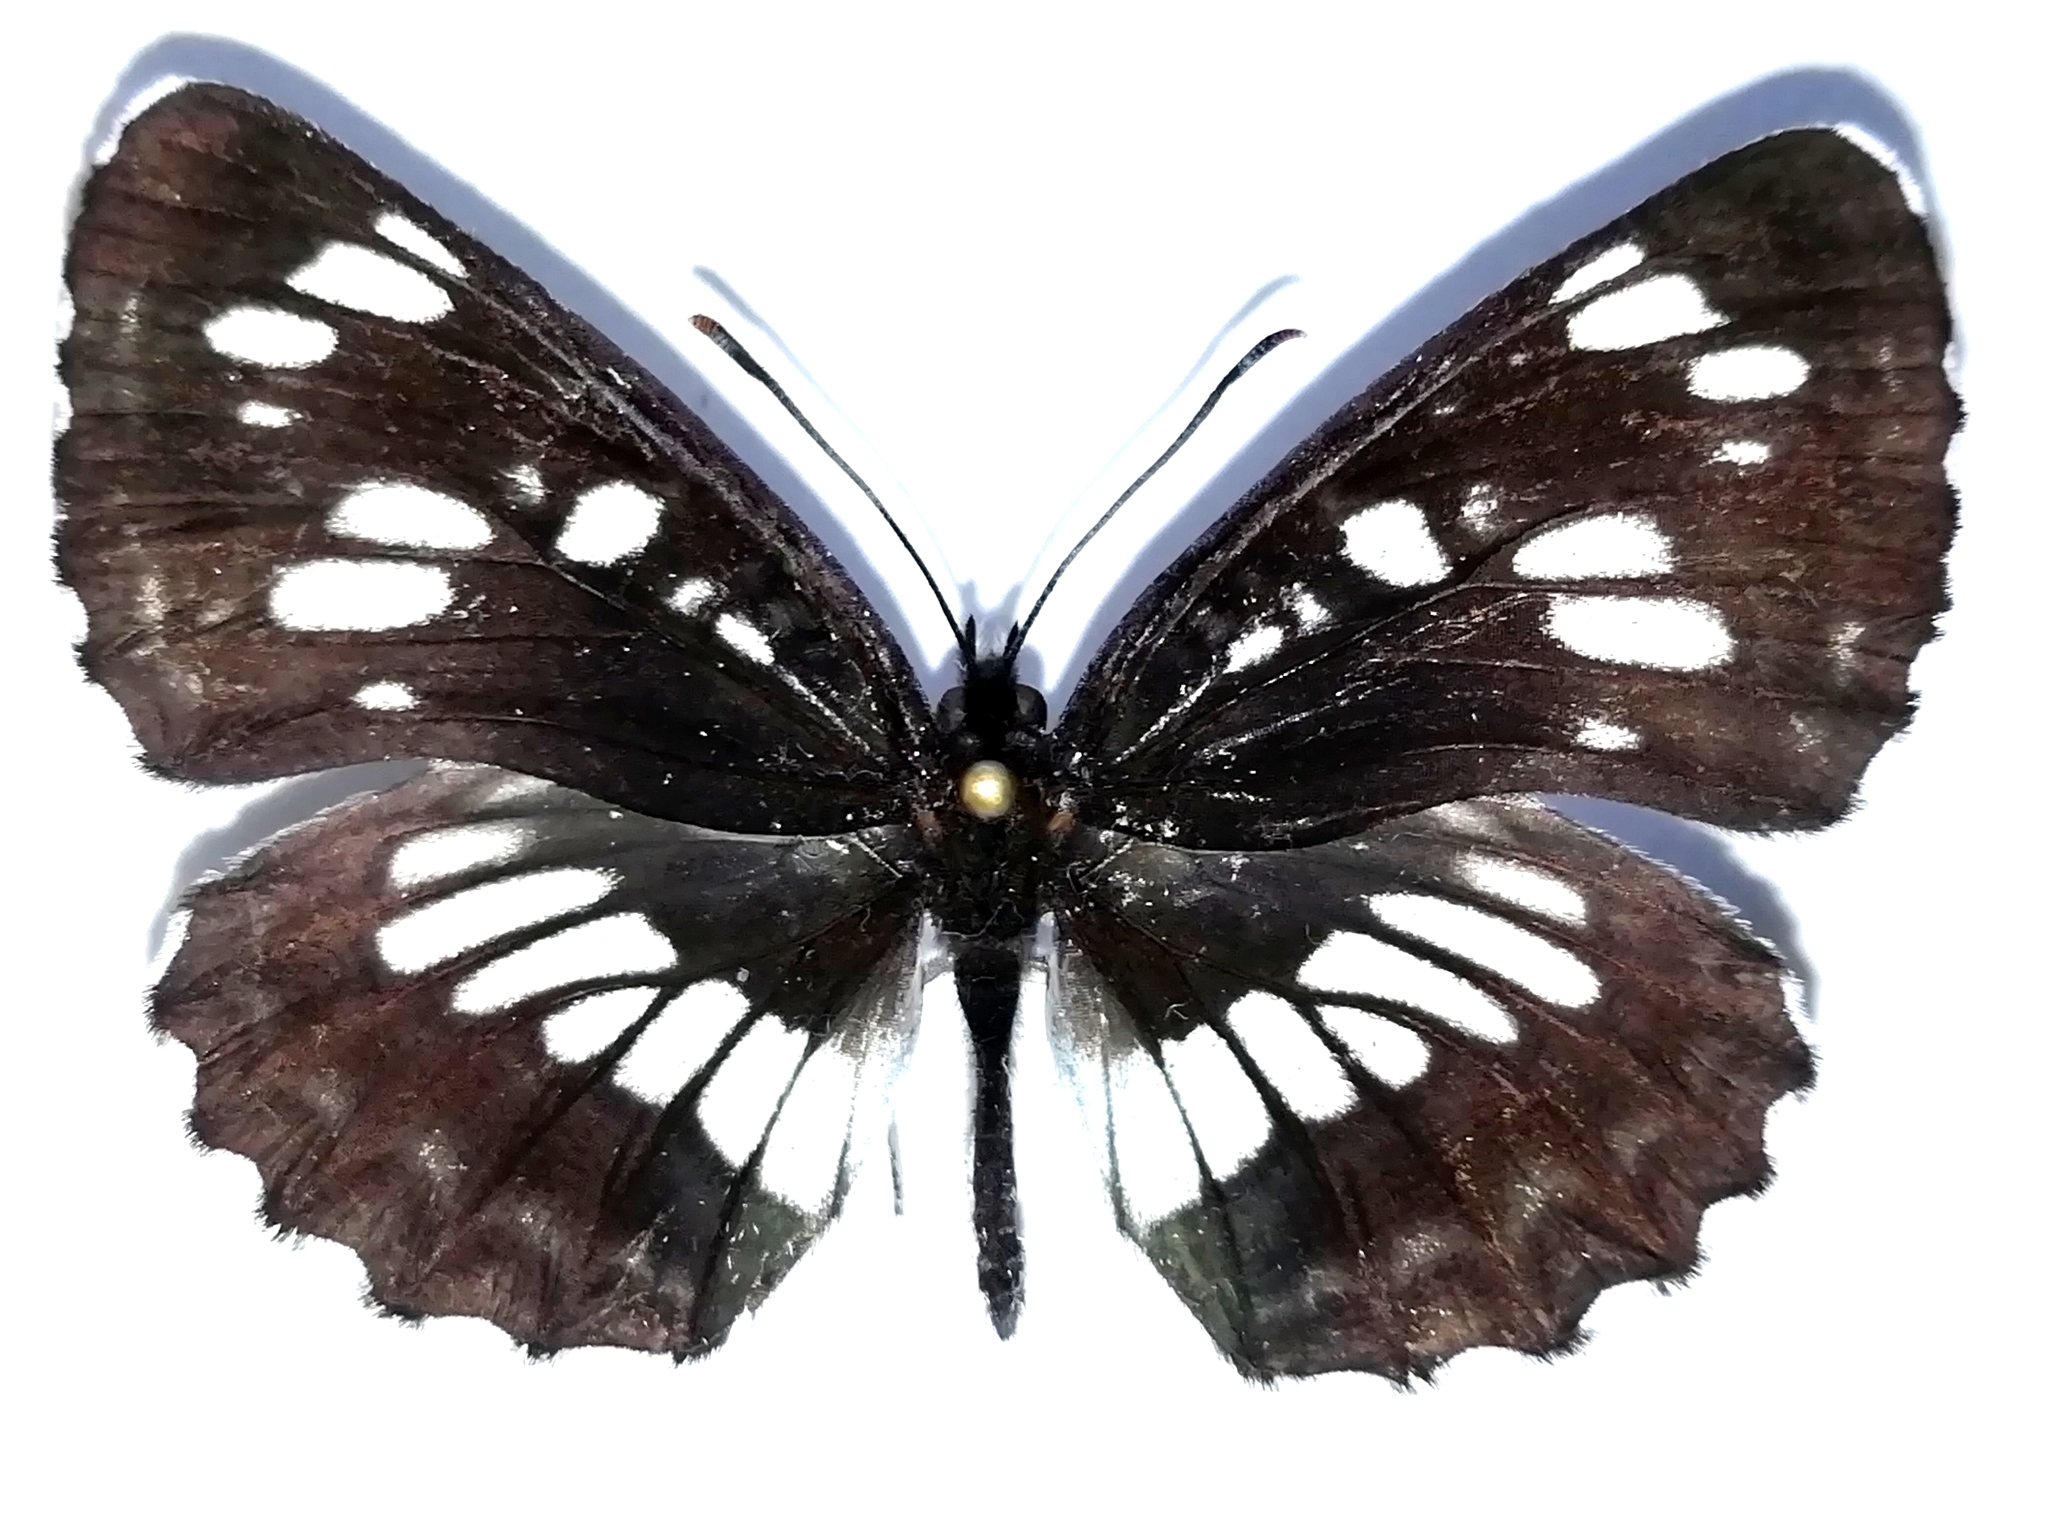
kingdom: Animalia
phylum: Arthropoda
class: Insecta
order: Lepidoptera
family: Nymphalidae
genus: Neptis
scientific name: Neptis rivularis
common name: Hungarian glider
